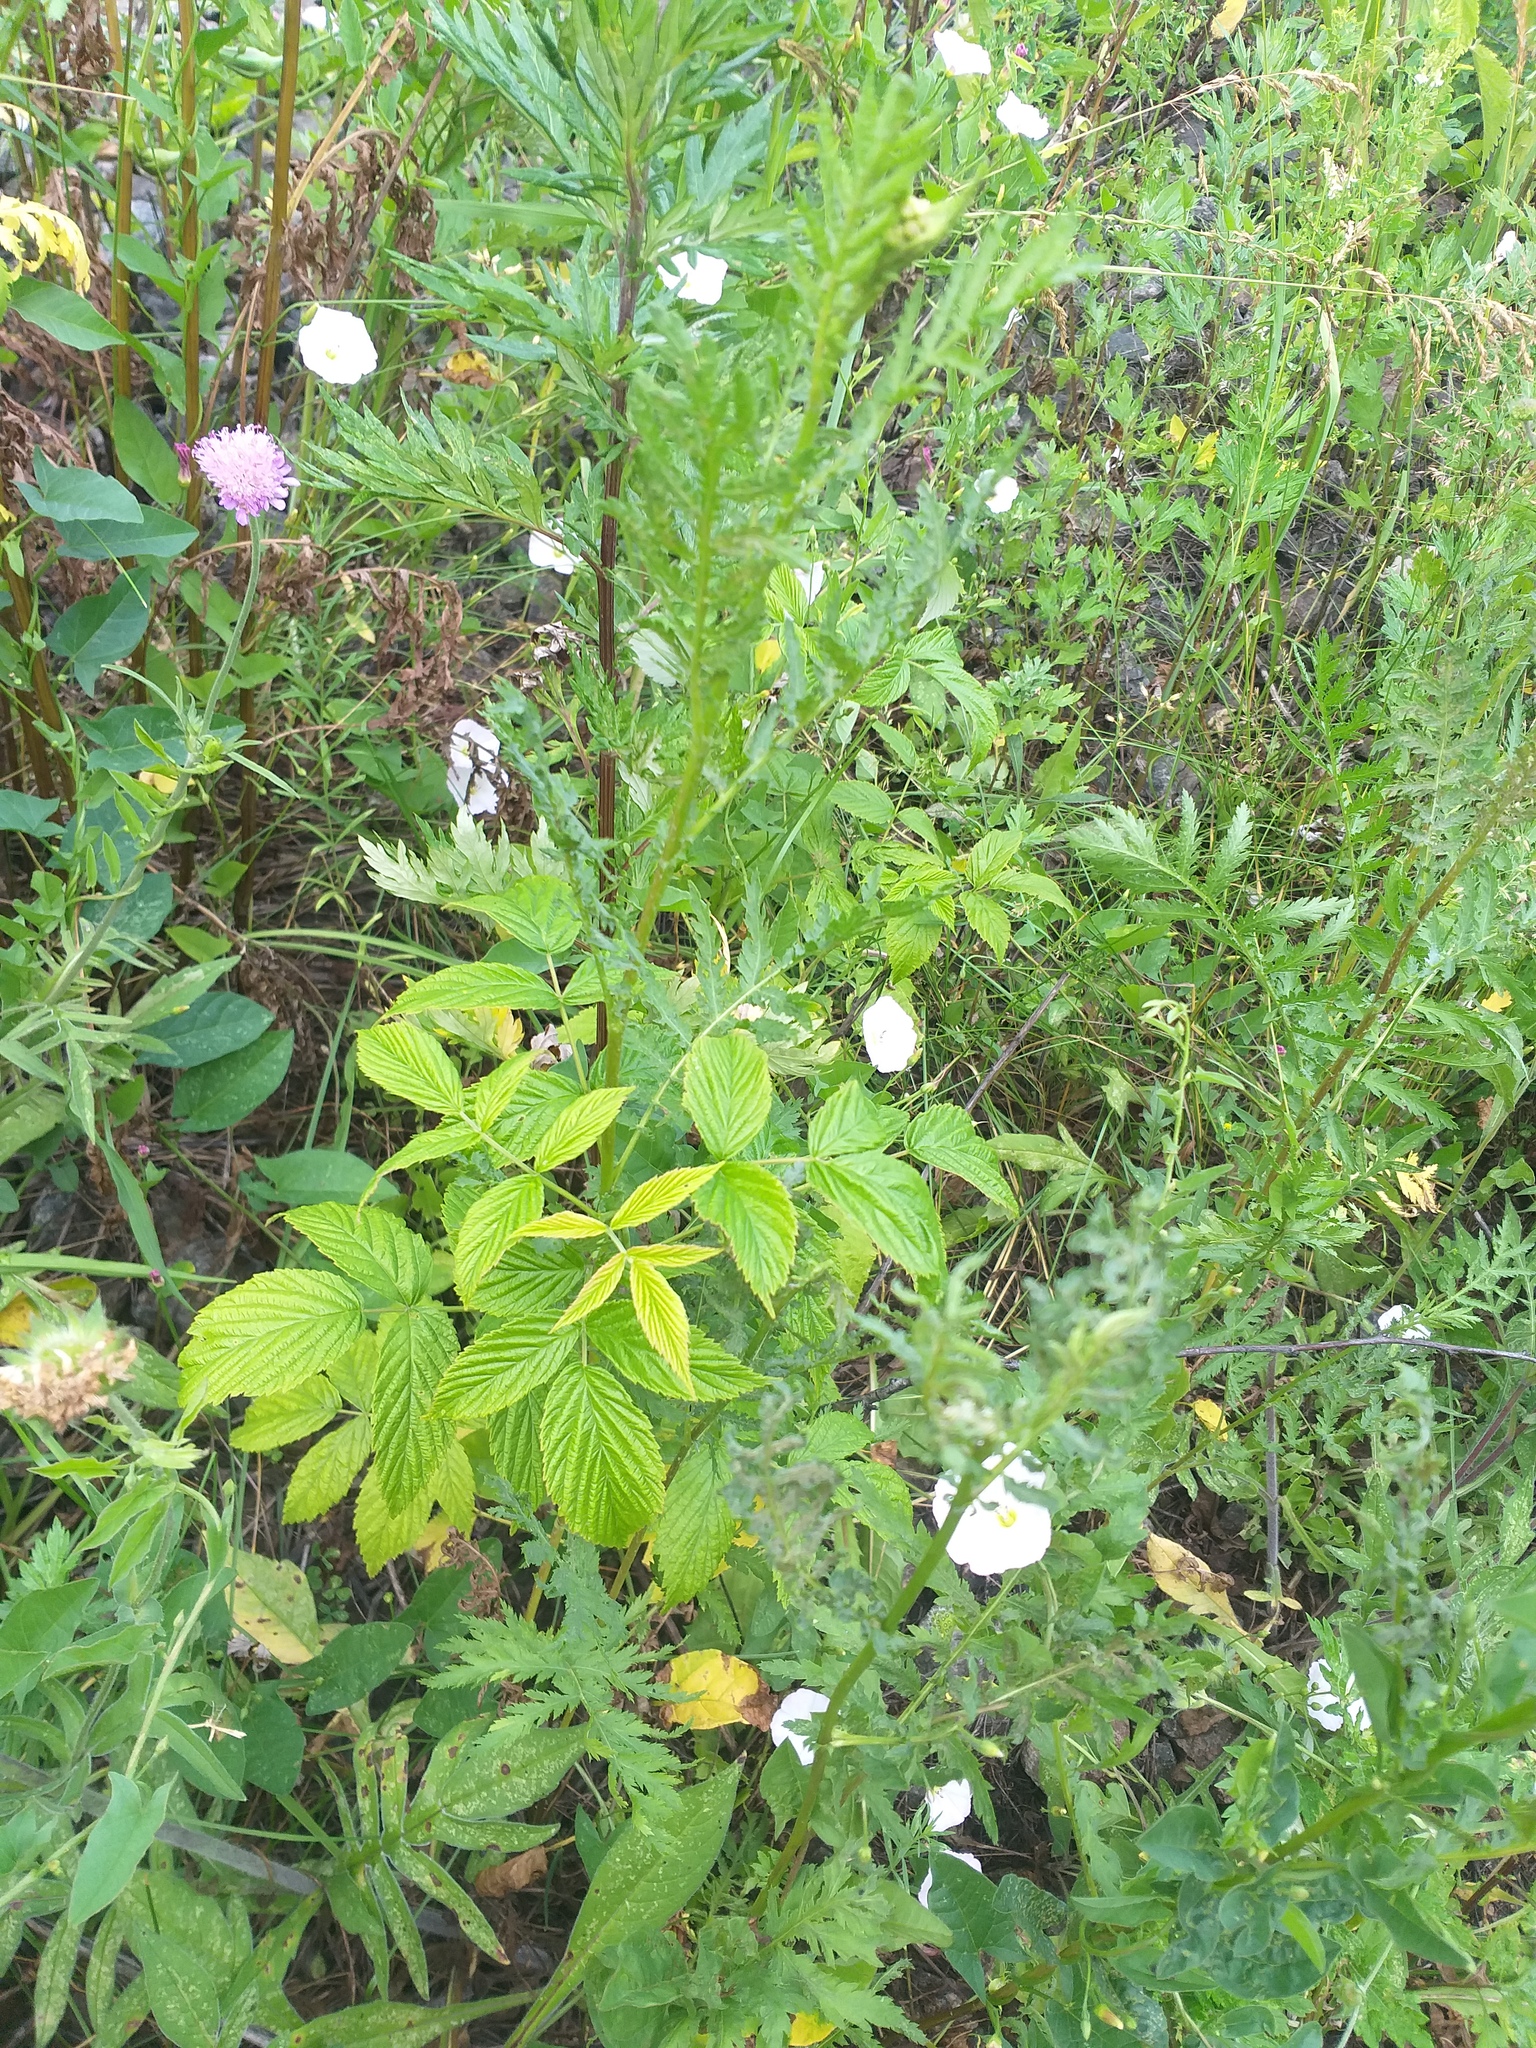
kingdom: Plantae
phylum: Tracheophyta
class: Magnoliopsida
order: Rosales
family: Rosaceae
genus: Rubus
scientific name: Rubus idaeus
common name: Raspberry
